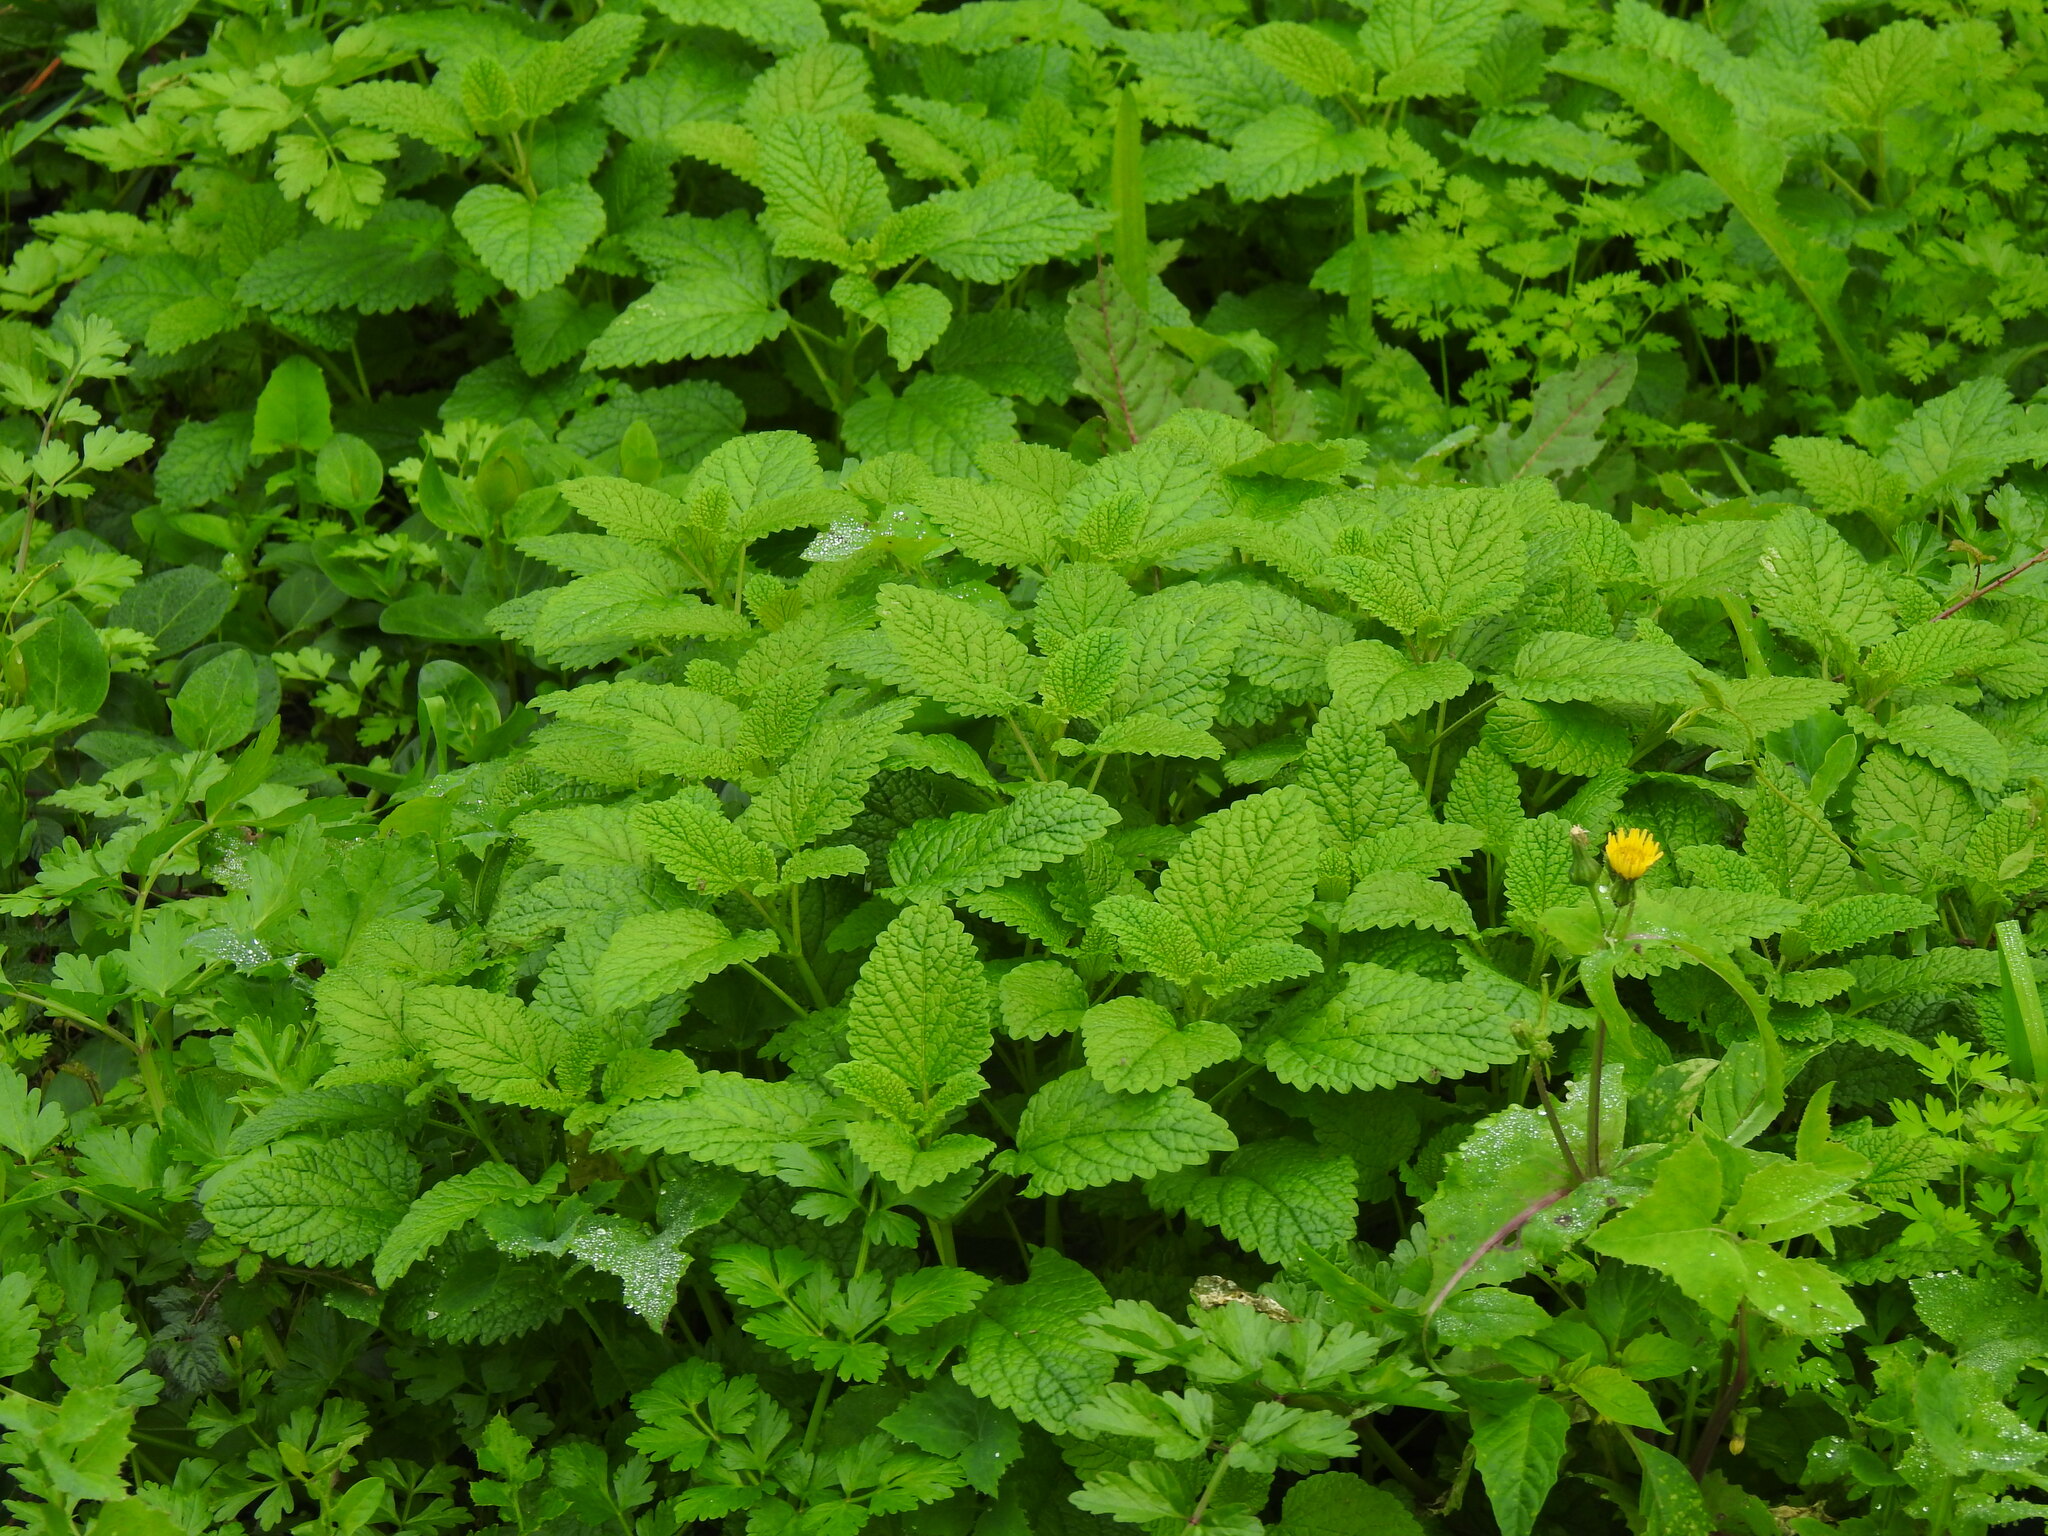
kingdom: Plantae
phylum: Tracheophyta
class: Magnoliopsida
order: Lamiales
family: Lamiaceae
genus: Melissa
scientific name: Melissa officinalis
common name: Balm
